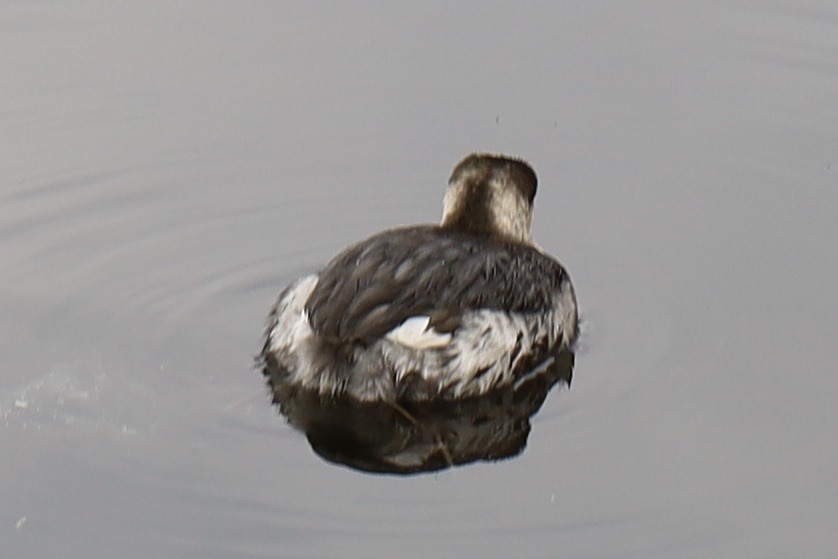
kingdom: Animalia
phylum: Chordata
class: Aves
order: Podicipediformes
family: Podicipedidae
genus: Podiceps
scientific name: Podiceps auritus
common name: Horned grebe
